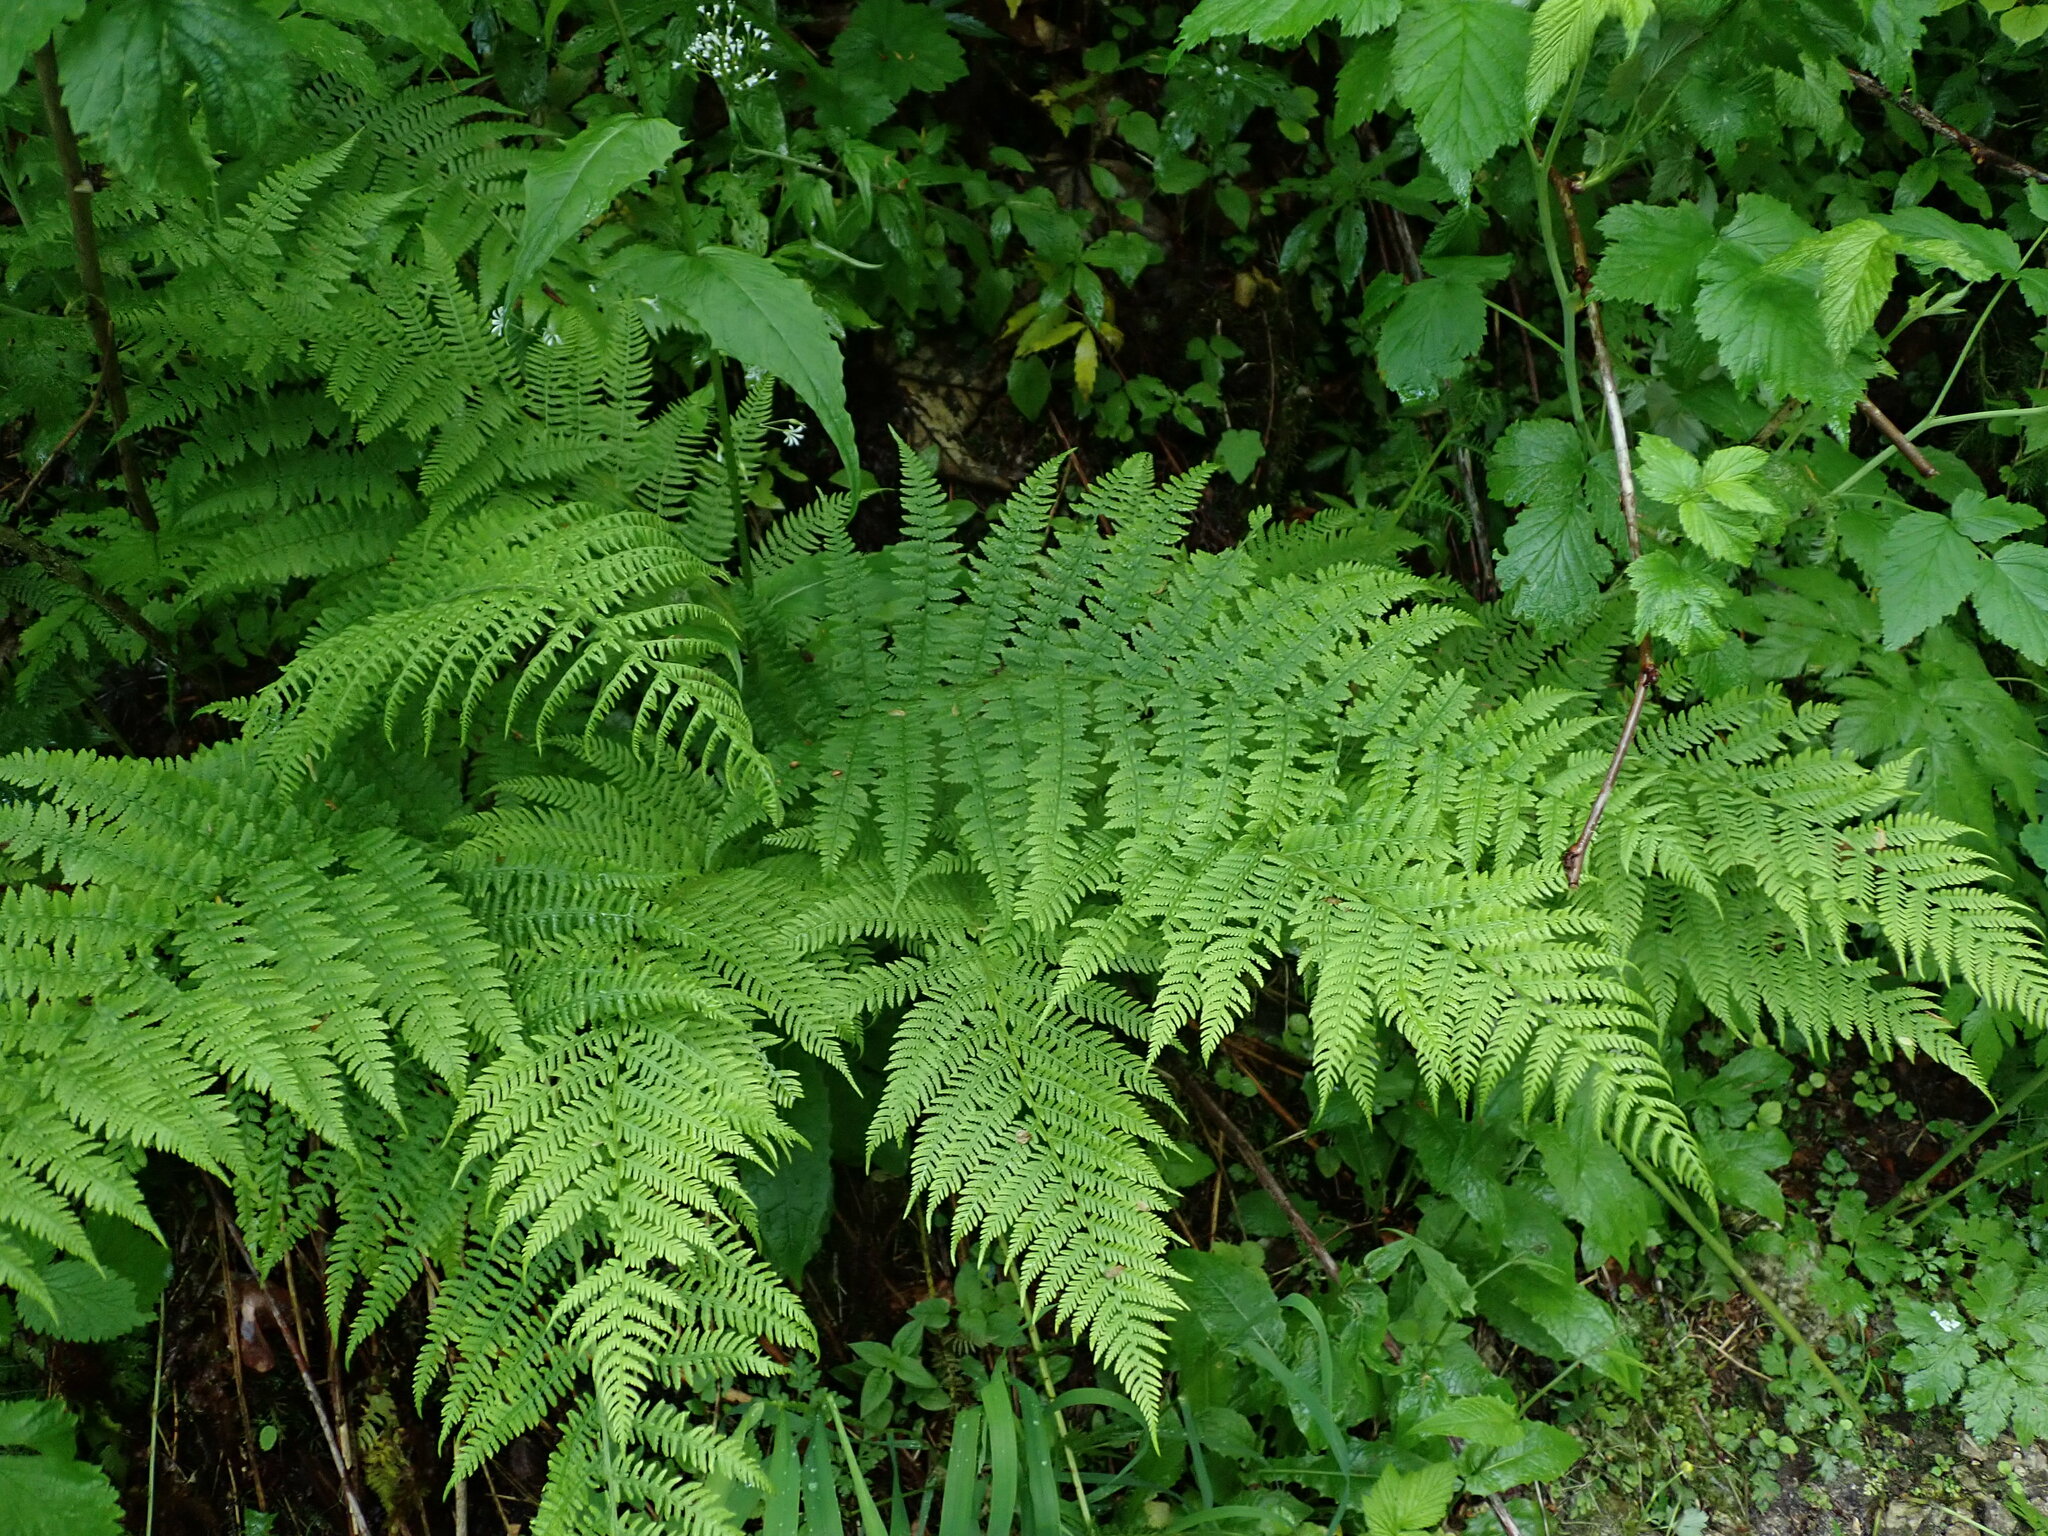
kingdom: Plantae
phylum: Tracheophyta
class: Polypodiopsida
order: Polypodiales
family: Athyriaceae
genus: Athyrium
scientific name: Athyrium filix-femina
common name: Lady fern
